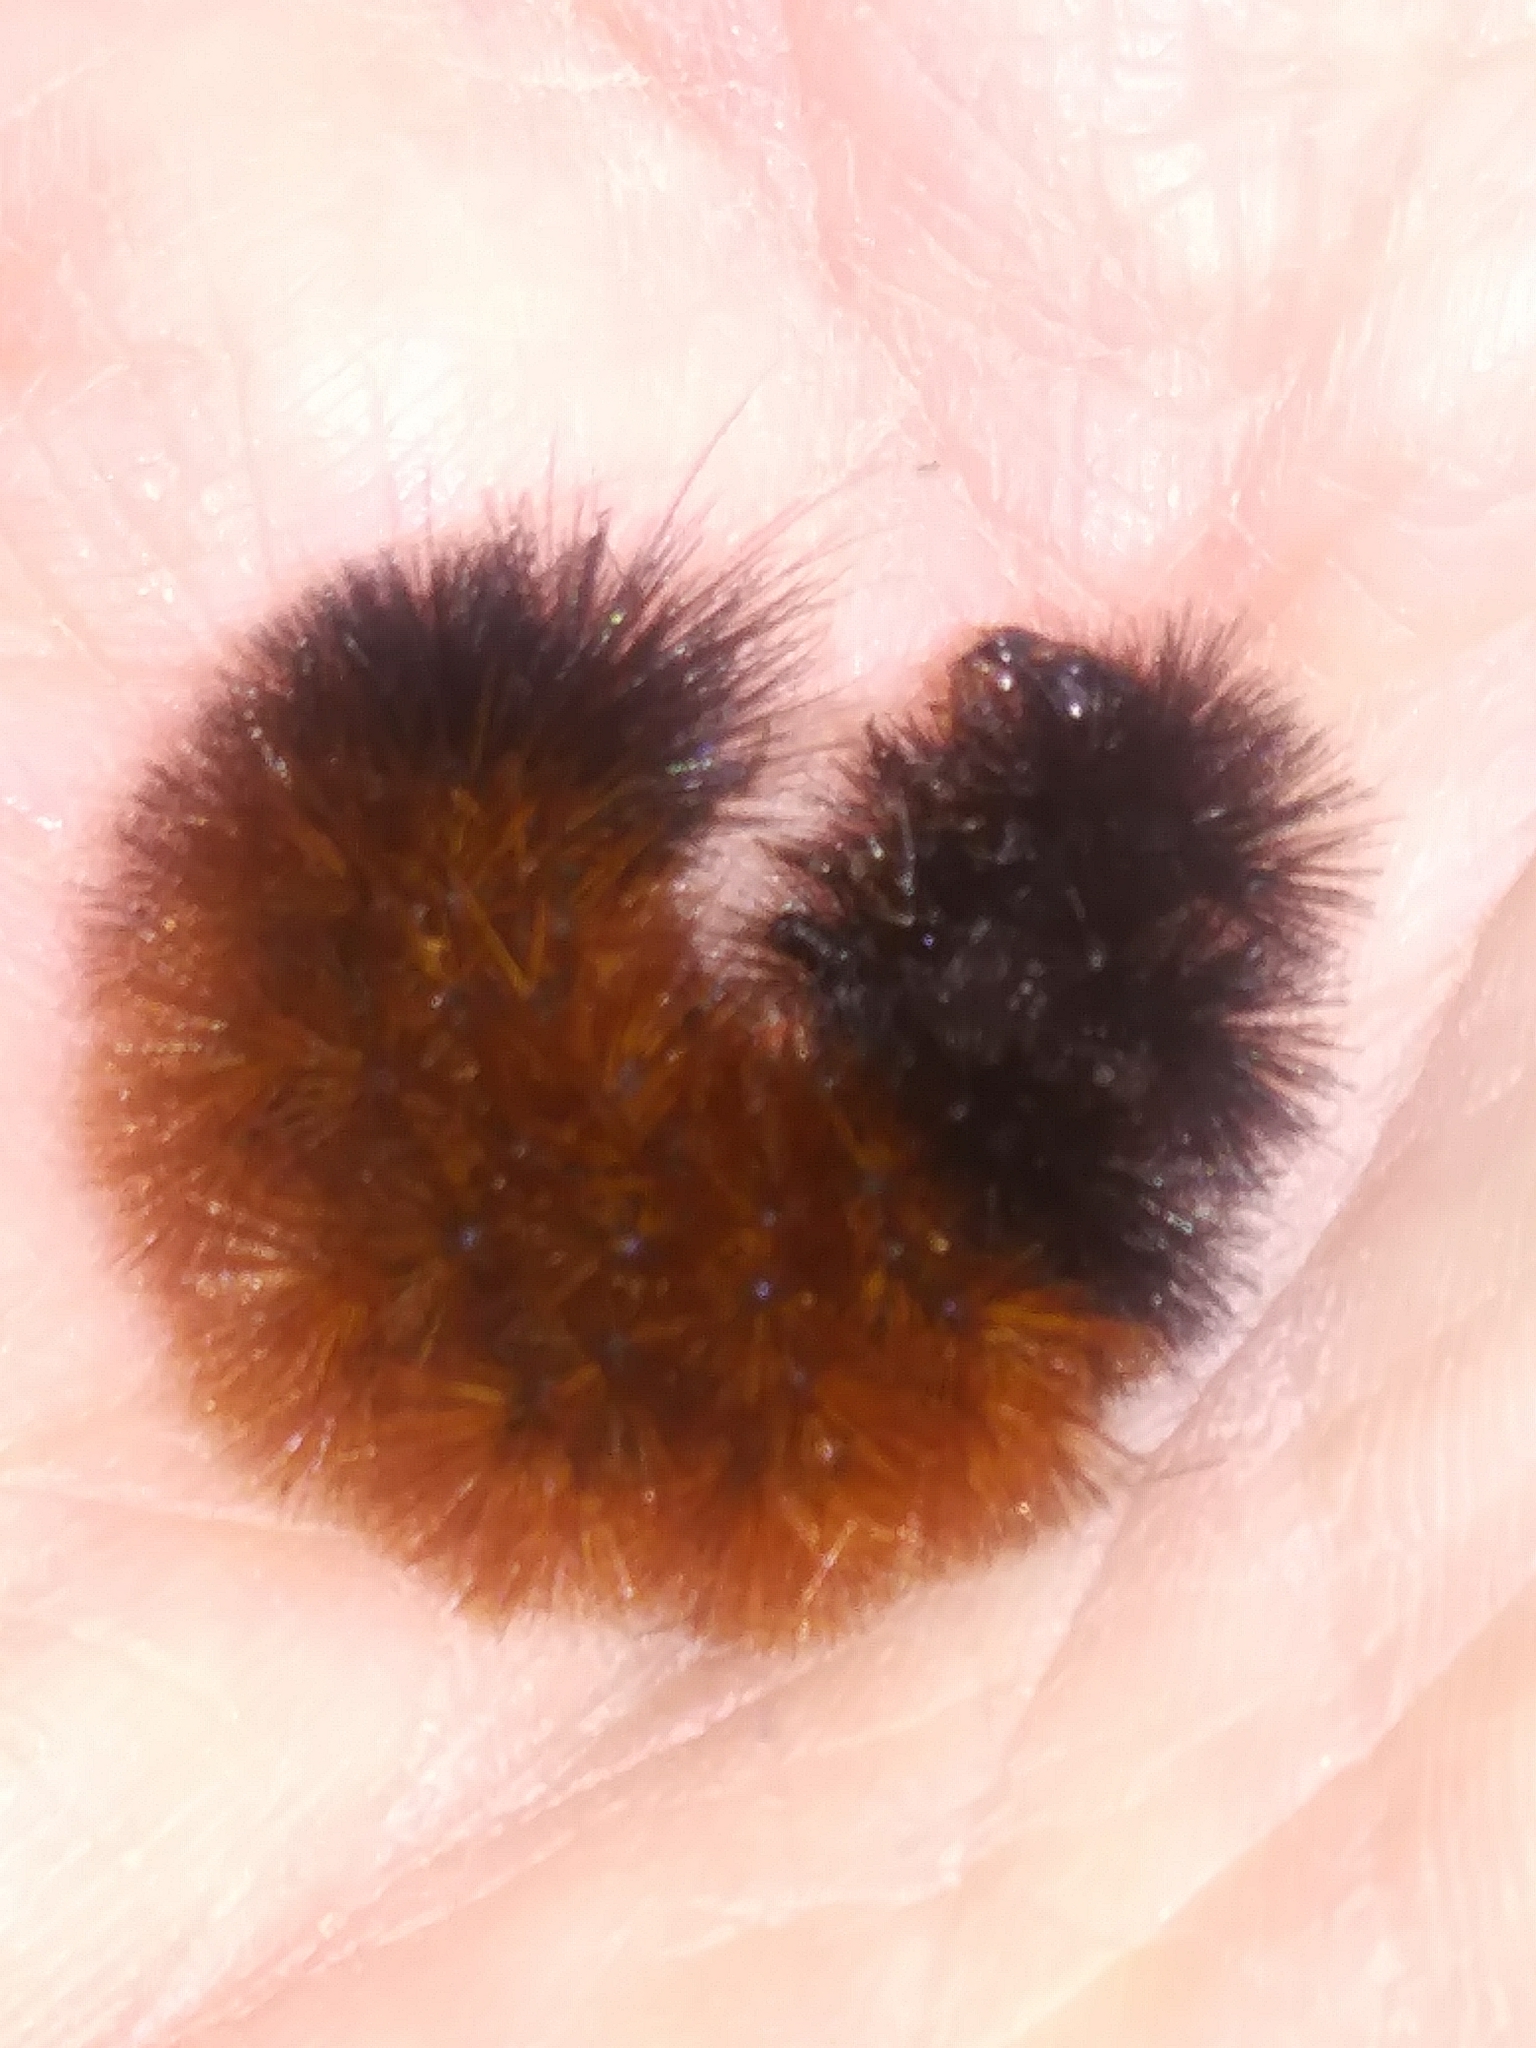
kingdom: Animalia
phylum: Arthropoda
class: Insecta
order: Lepidoptera
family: Erebidae
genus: Pyrrharctia
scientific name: Pyrrharctia isabella
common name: Isabella tiger moth
